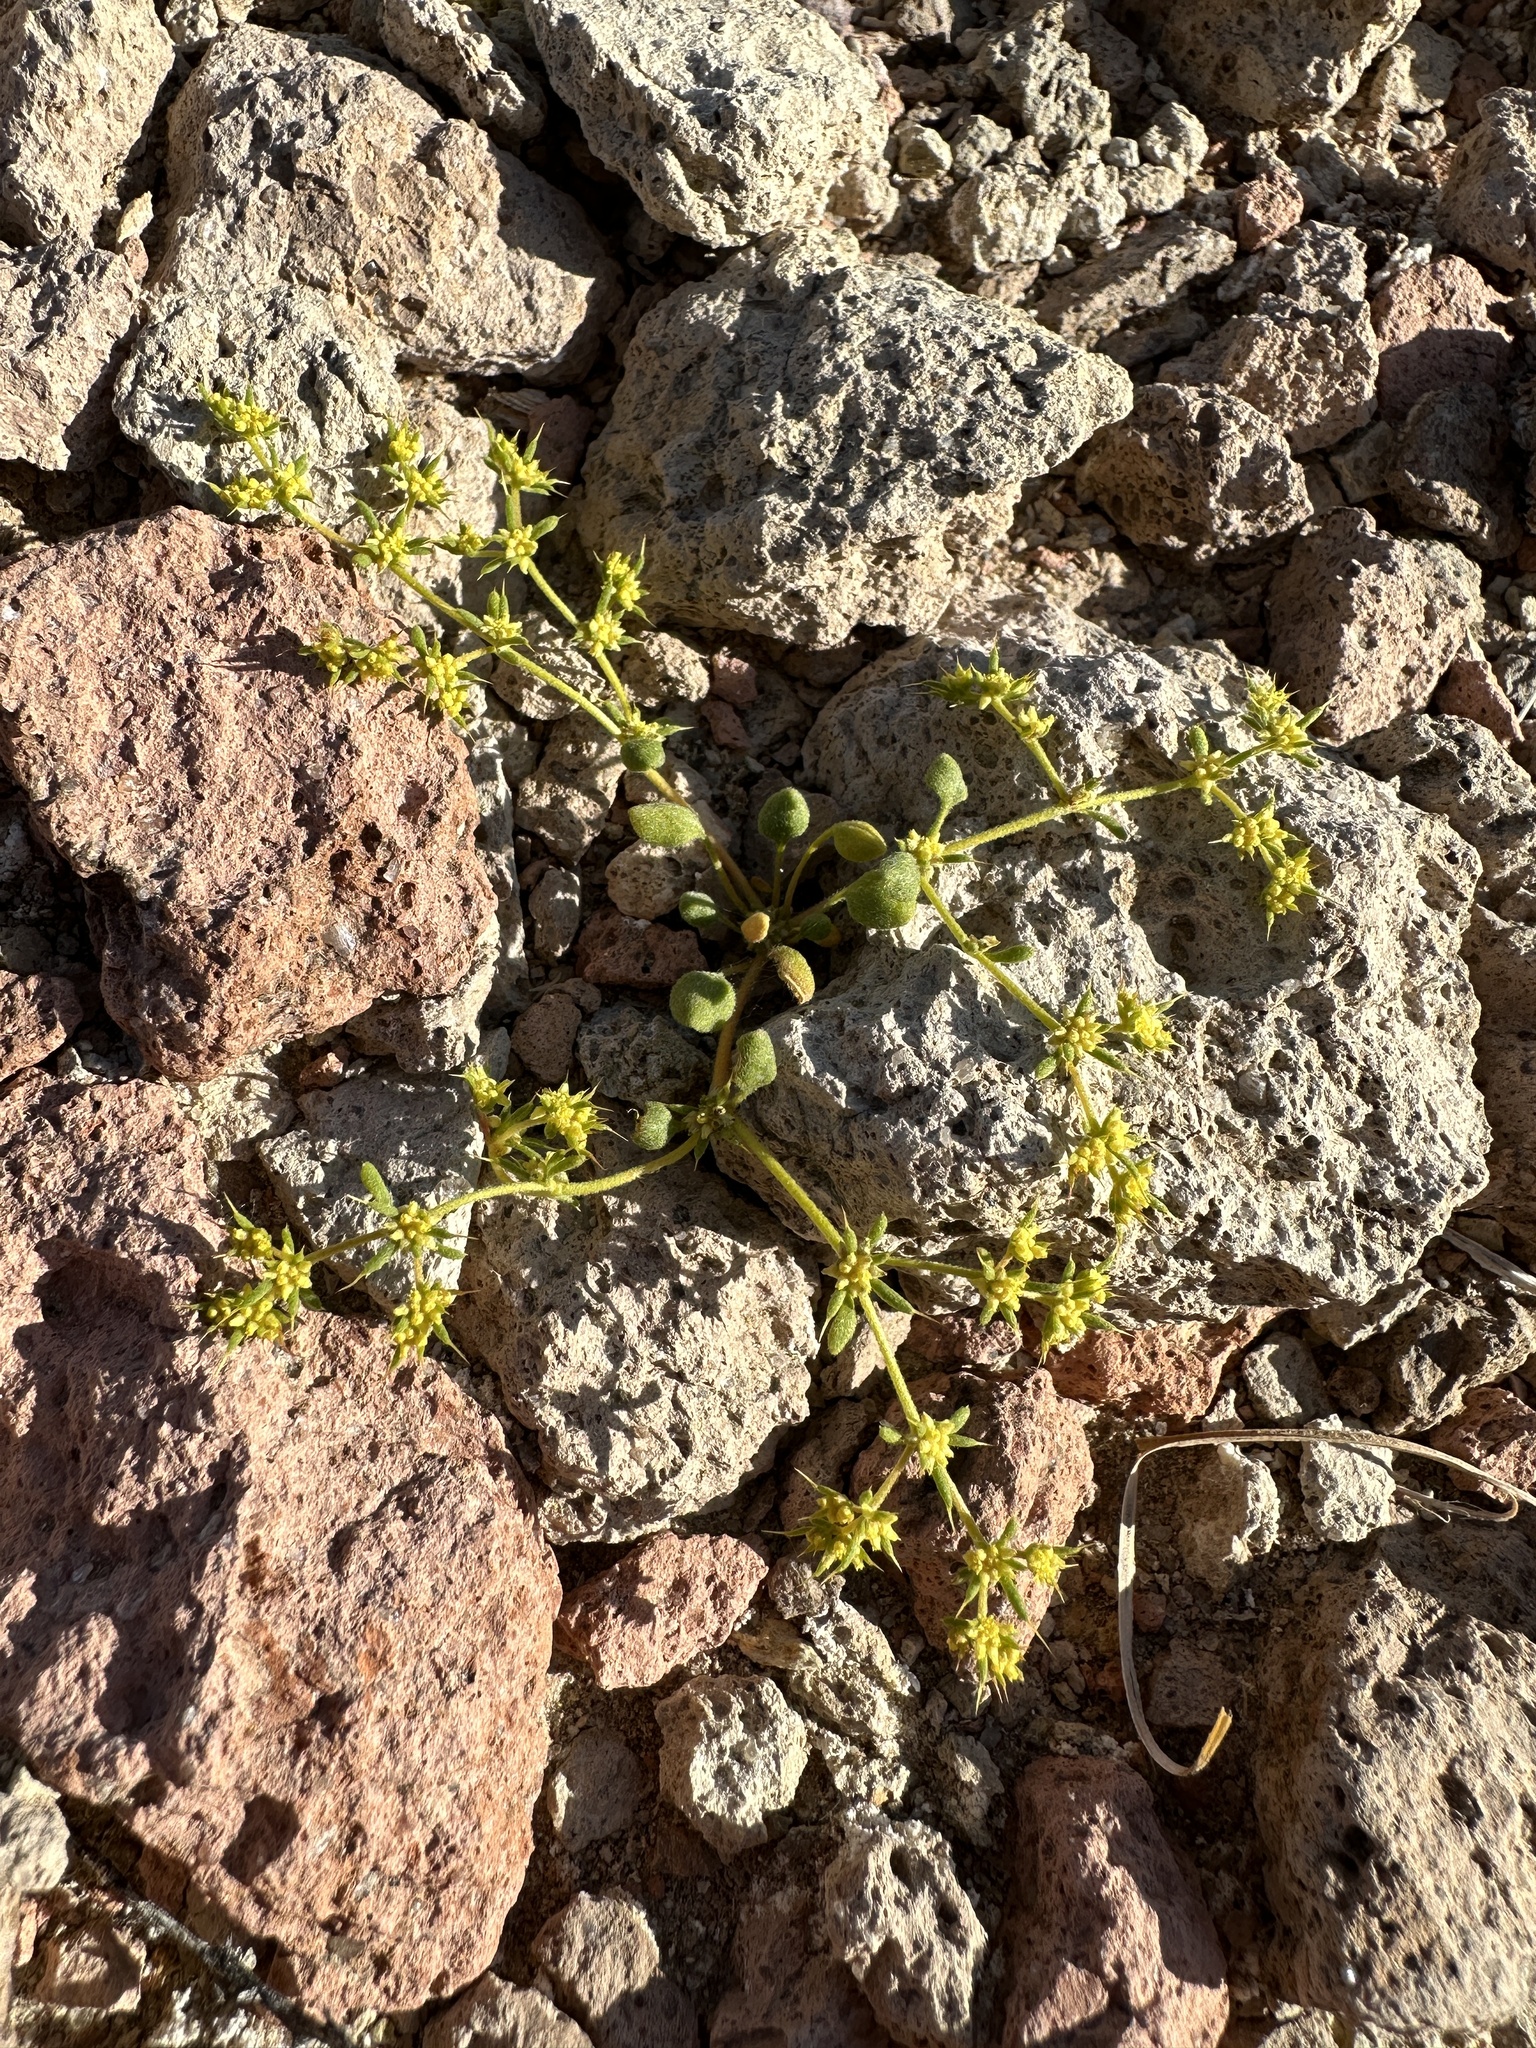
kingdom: Plantae
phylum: Tracheophyta
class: Magnoliopsida
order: Caryophyllales
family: Polygonaceae
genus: Goodmania
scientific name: Goodmania luteola
